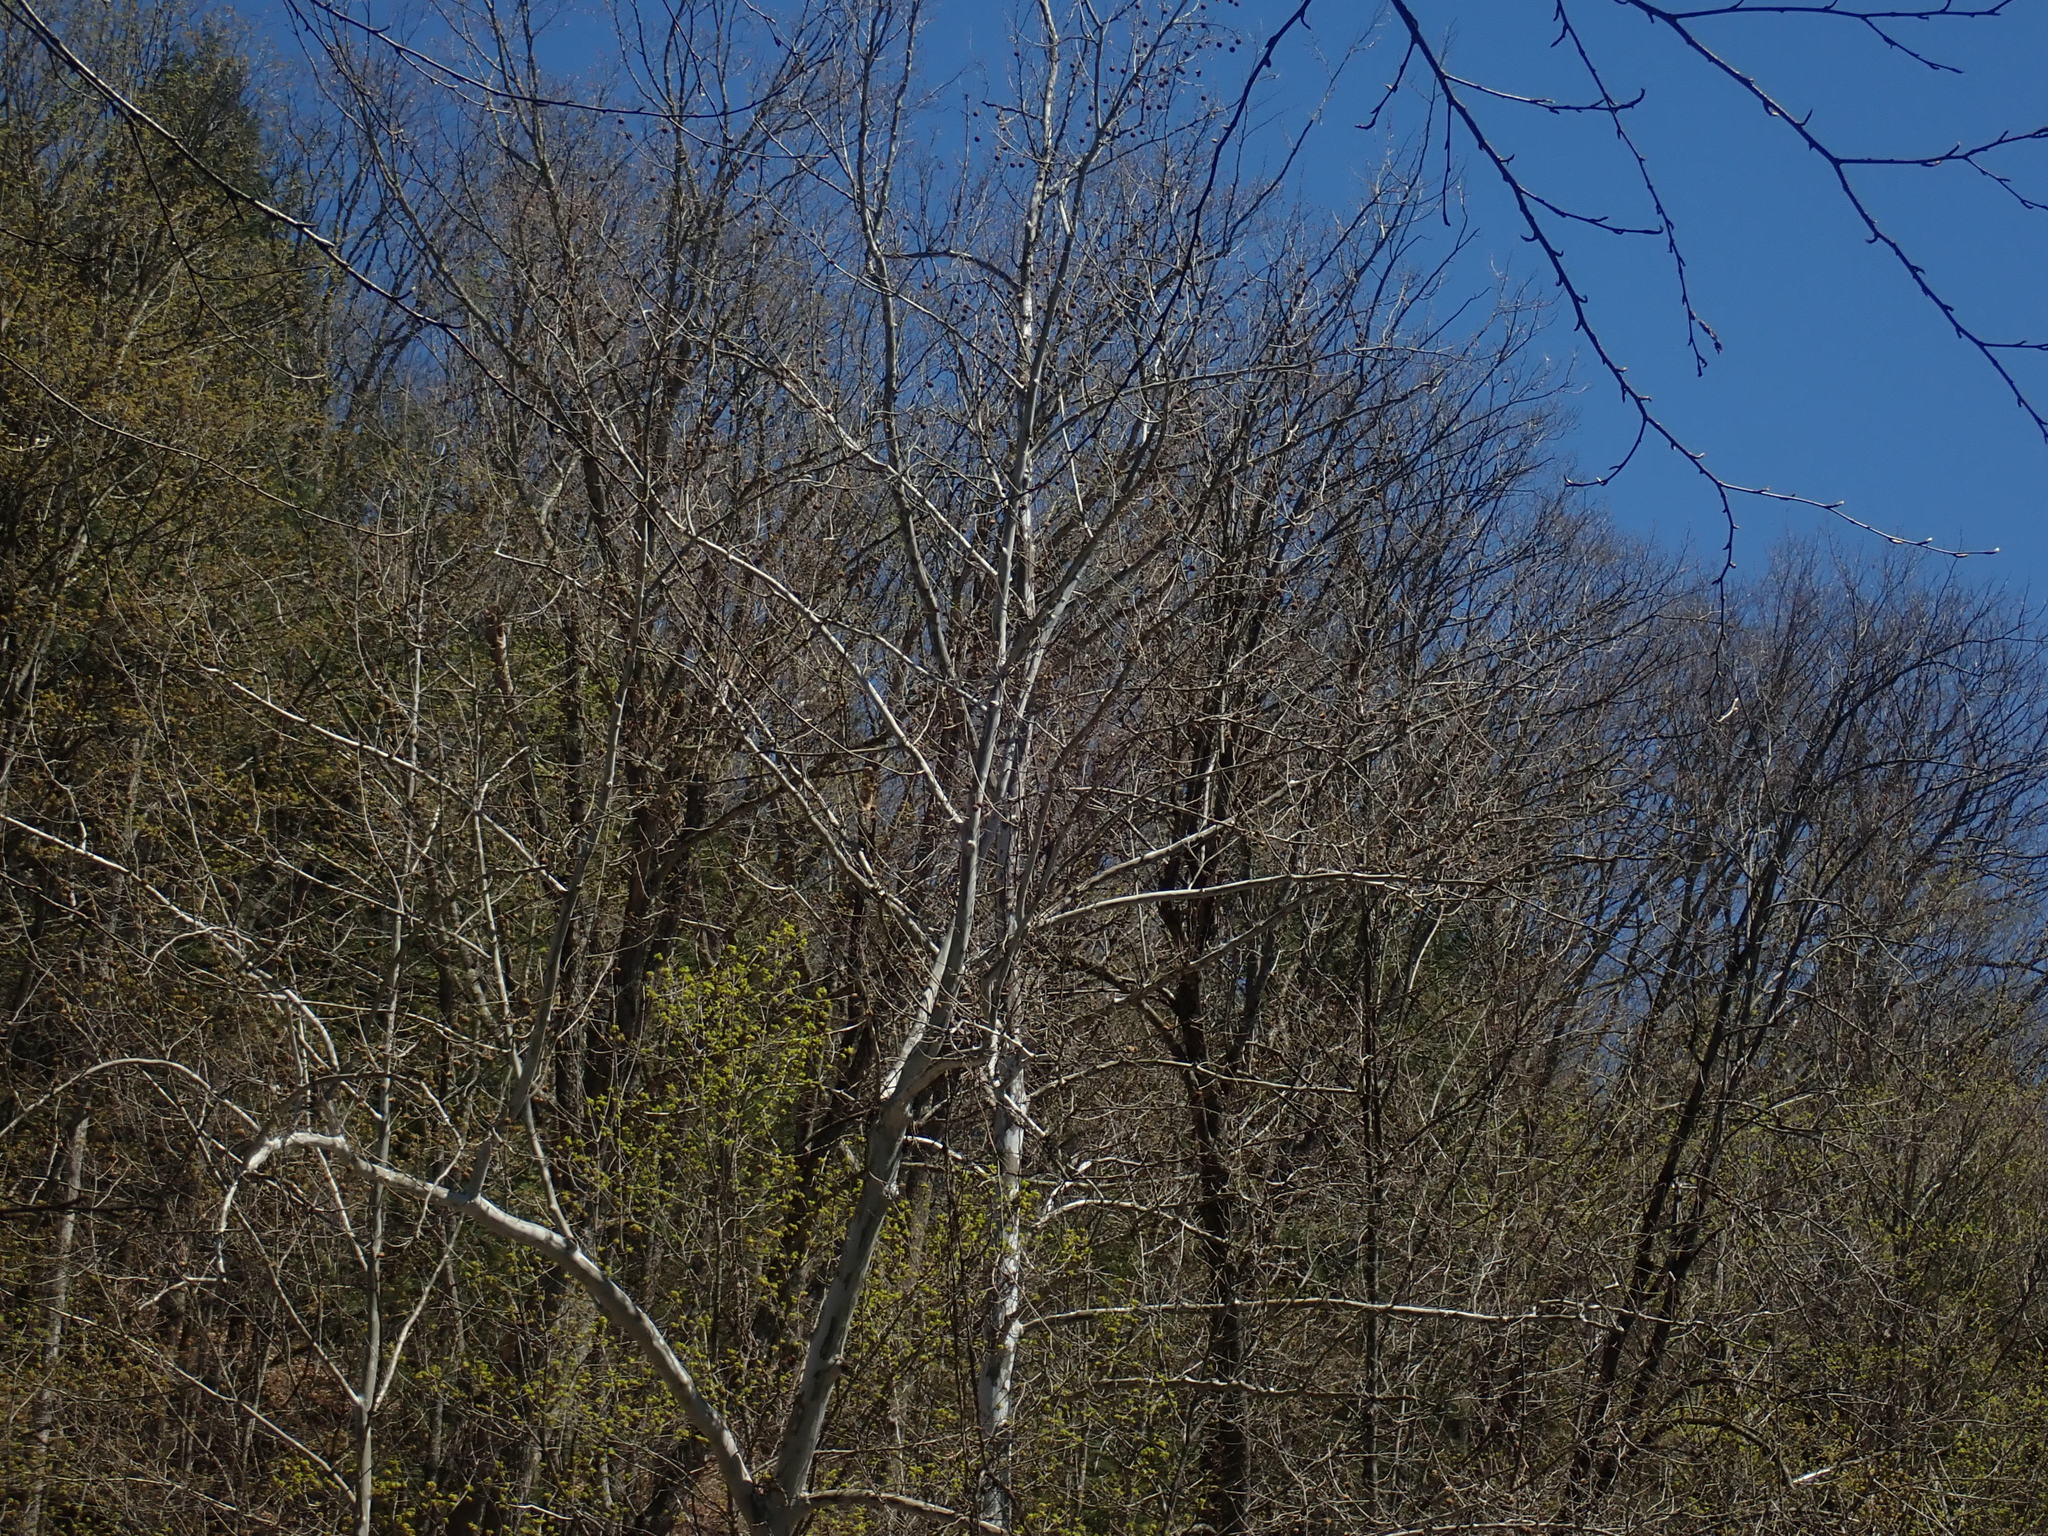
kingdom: Plantae
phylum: Tracheophyta
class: Magnoliopsida
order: Proteales
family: Platanaceae
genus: Platanus
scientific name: Platanus occidentalis
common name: American sycamore
